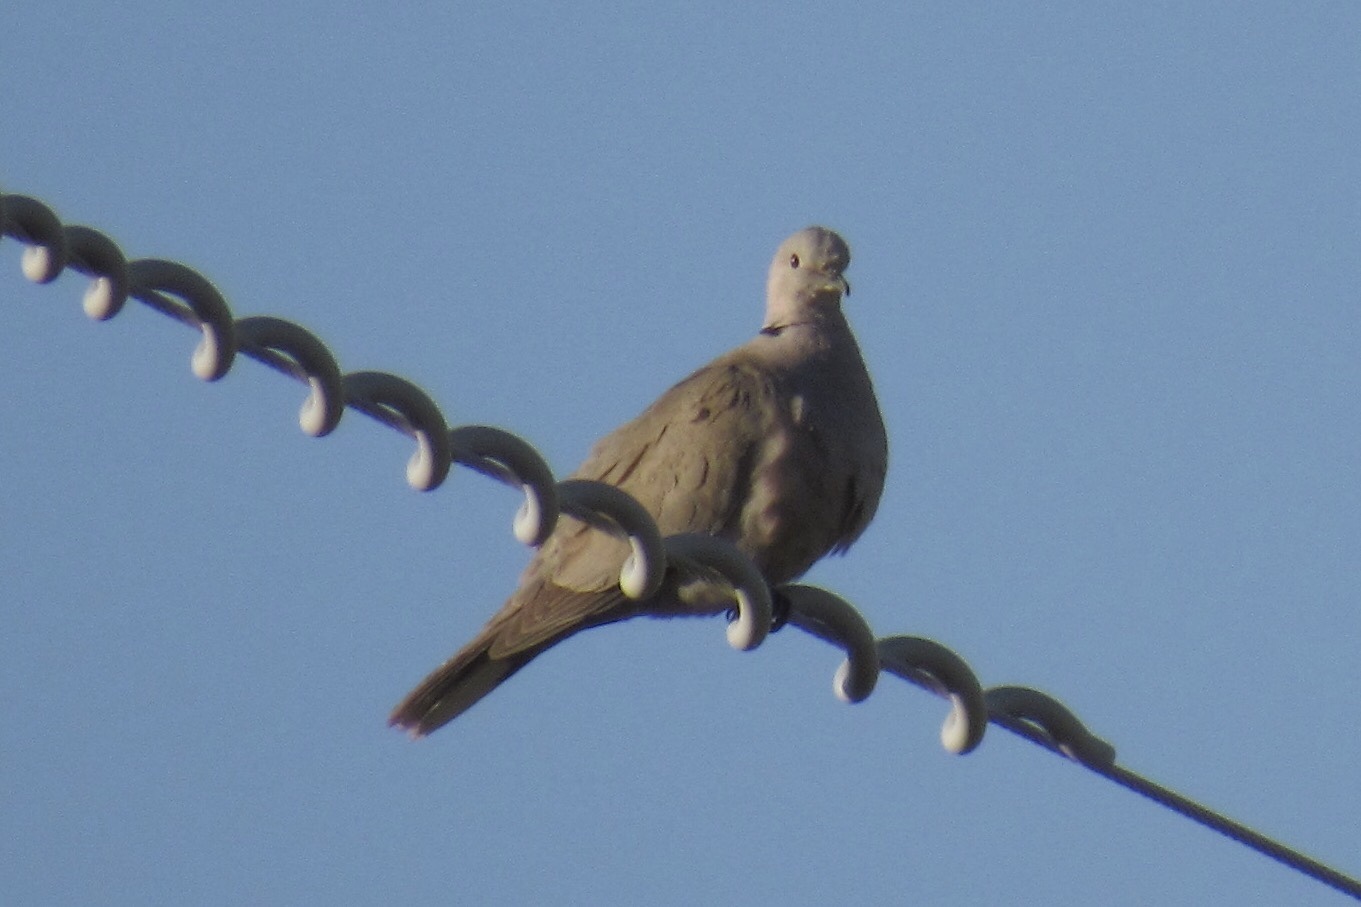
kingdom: Animalia
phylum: Chordata
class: Aves
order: Columbiformes
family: Columbidae
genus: Streptopelia
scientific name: Streptopelia decaocto
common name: Eurasian collared dove
